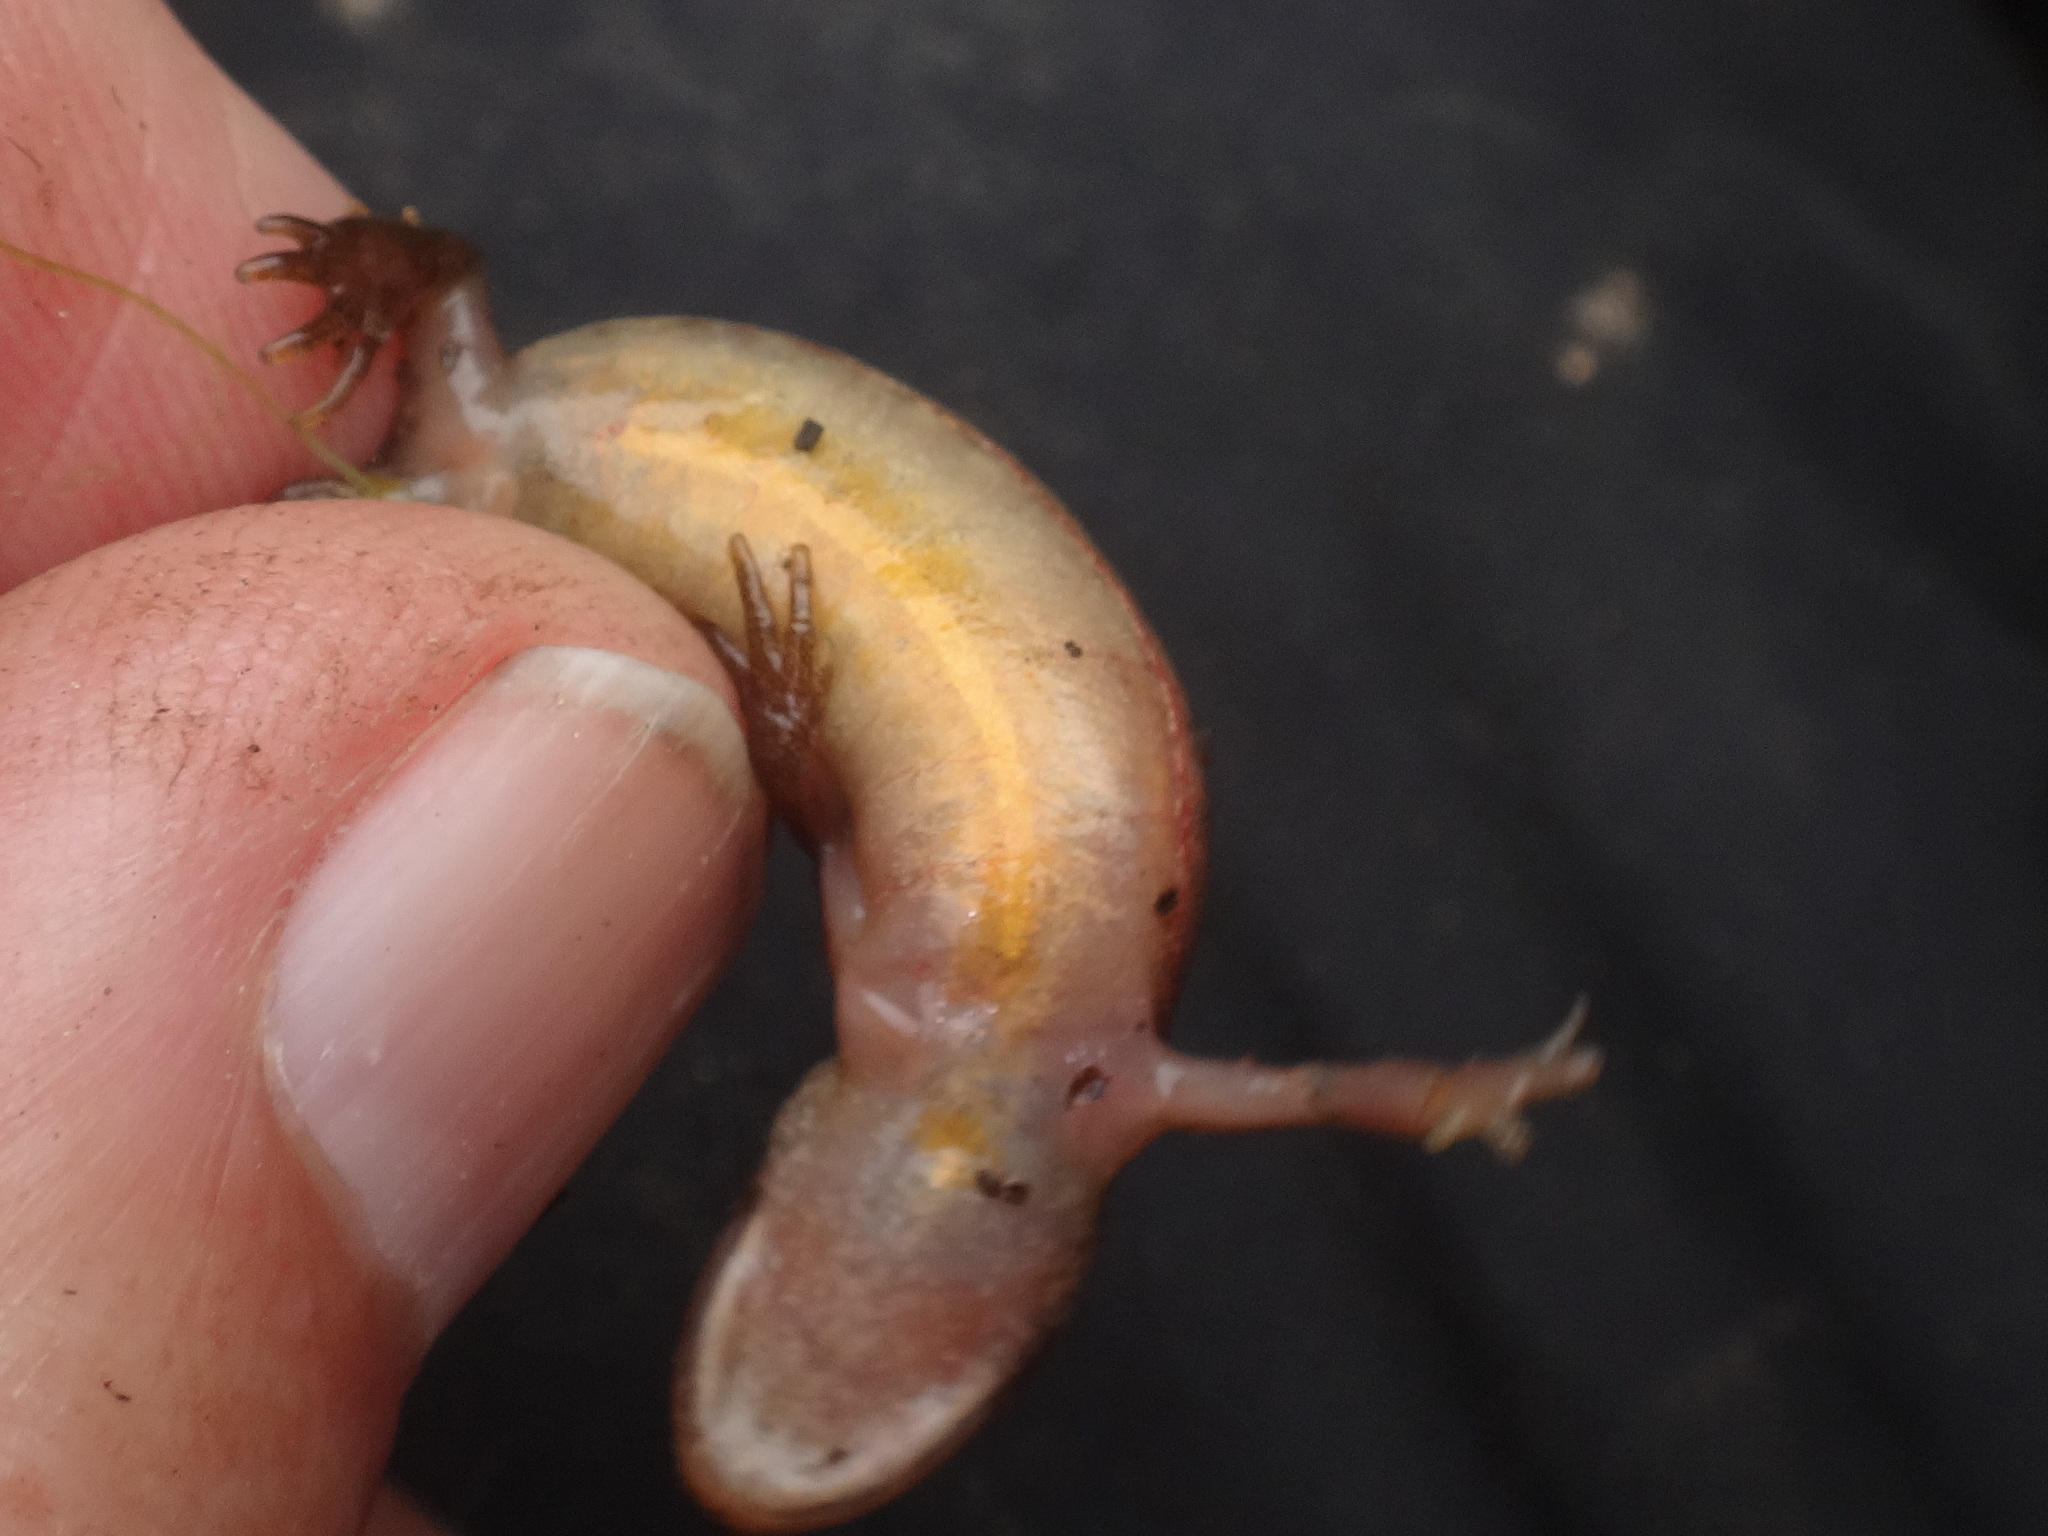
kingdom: Animalia
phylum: Chordata
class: Amphibia
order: Caudata
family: Salamandridae
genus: Lissotriton
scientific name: Lissotriton vulgaris
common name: Smooth newt
